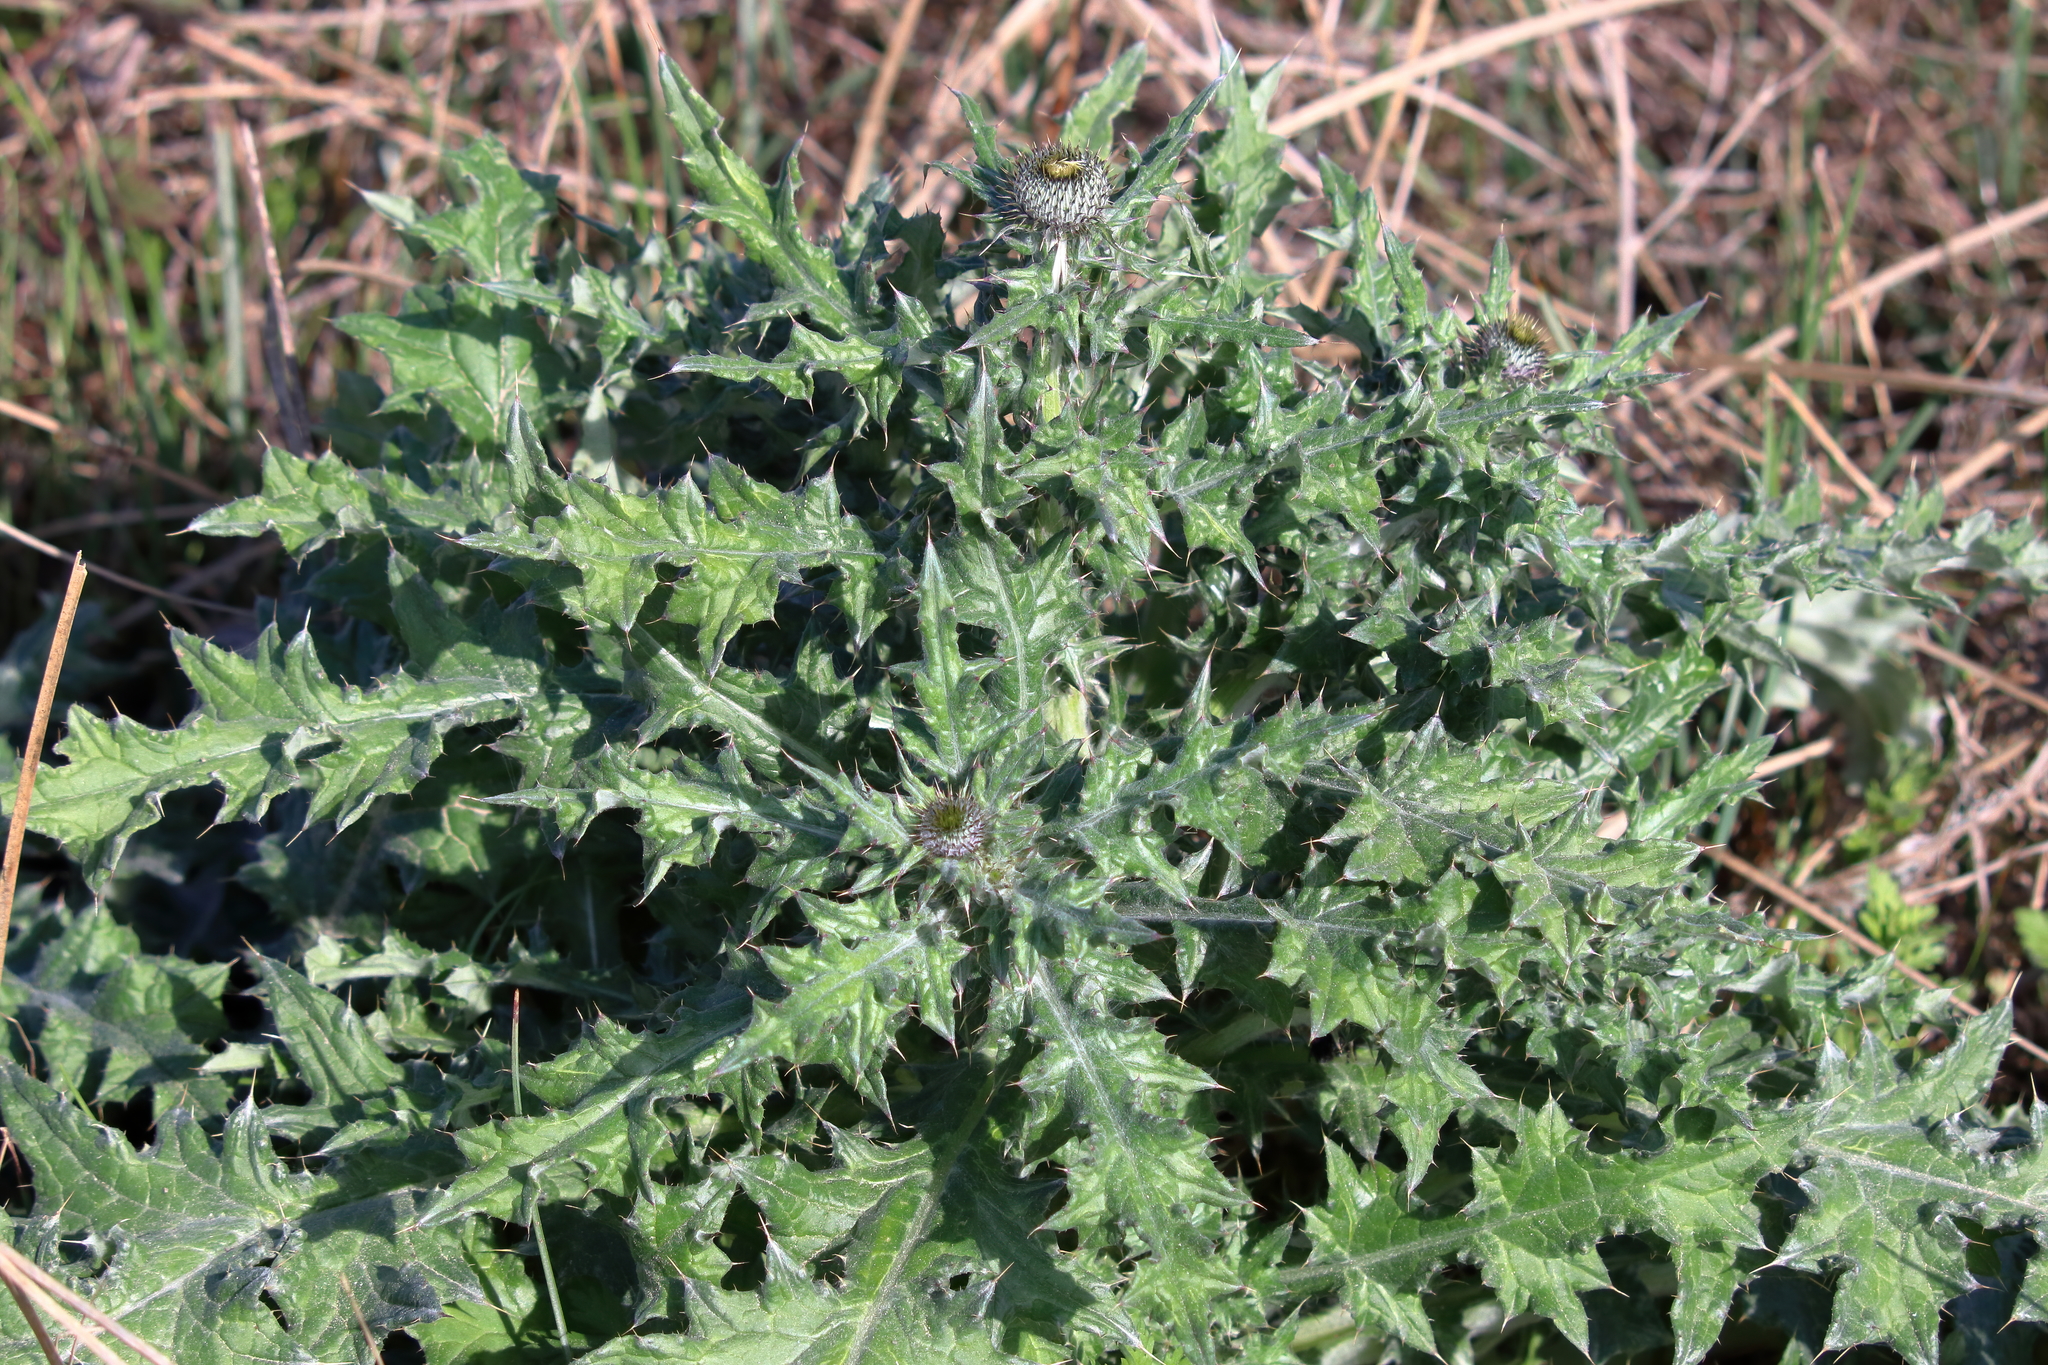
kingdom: Plantae
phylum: Tracheophyta
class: Magnoliopsida
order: Asterales
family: Asteraceae
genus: Cirsium
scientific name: Cirsium texanum
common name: Texas purple thistle
